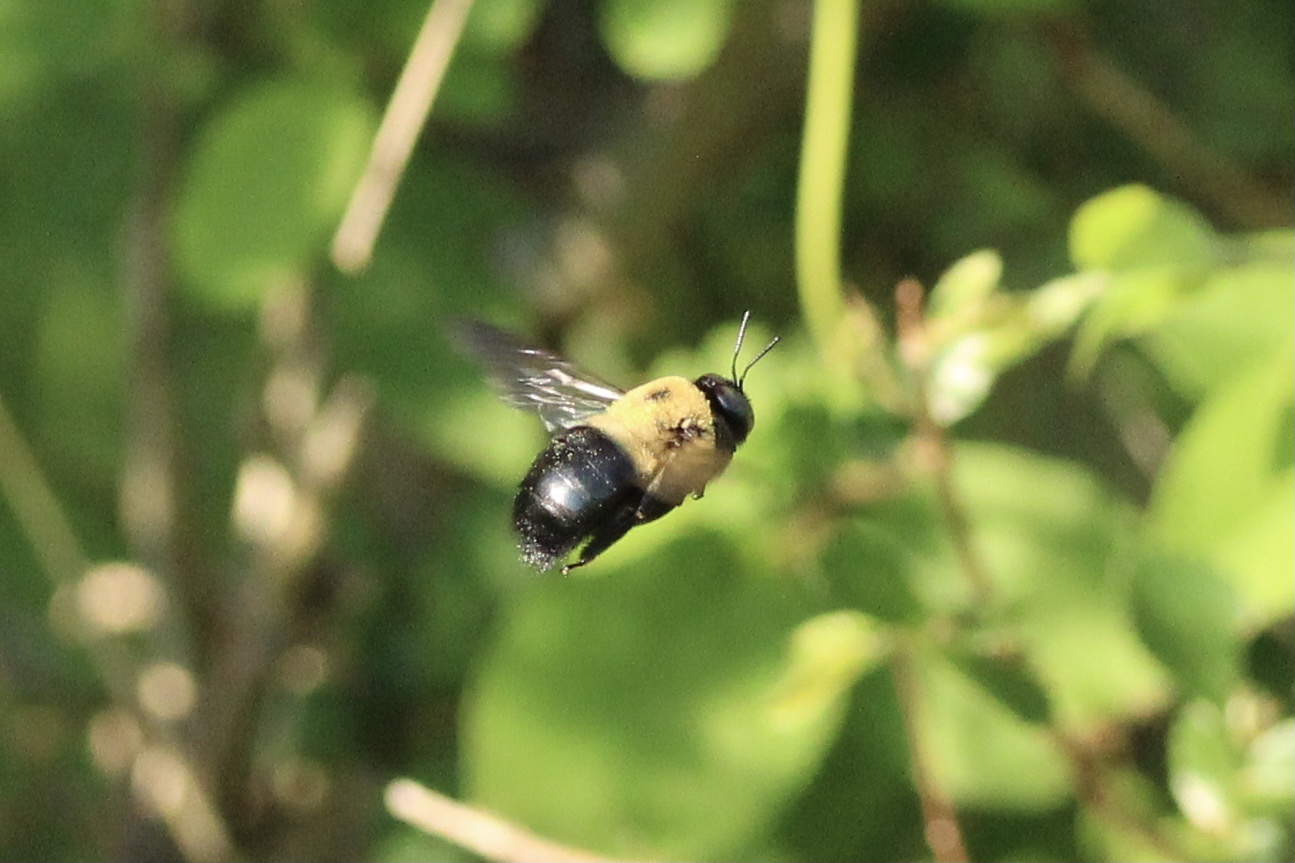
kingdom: Animalia
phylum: Arthropoda
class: Insecta
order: Hymenoptera
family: Apidae
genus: Xylocopa
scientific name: Xylocopa virginica
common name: Carpenter bee
